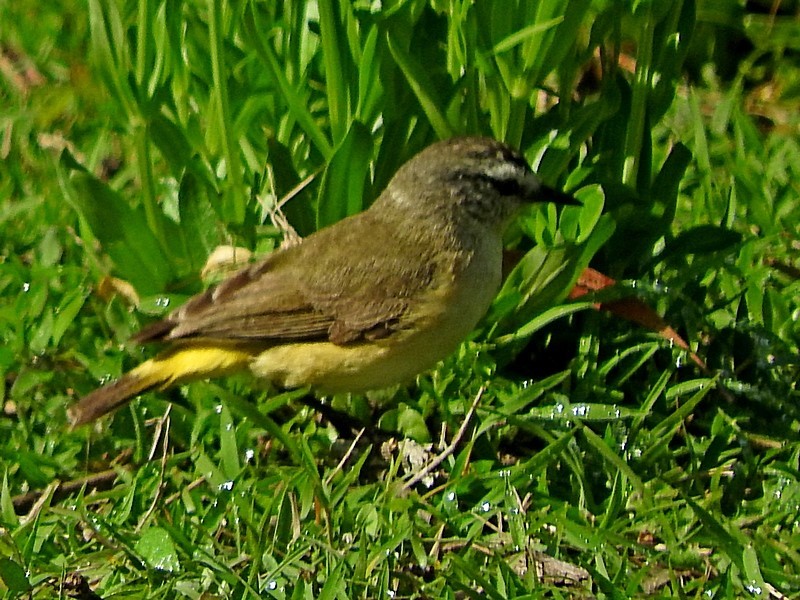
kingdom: Animalia
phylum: Chordata
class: Aves
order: Passeriformes
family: Acanthizidae
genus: Acanthiza
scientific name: Acanthiza chrysorrhoa
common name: Yellow-rumped thornbill
